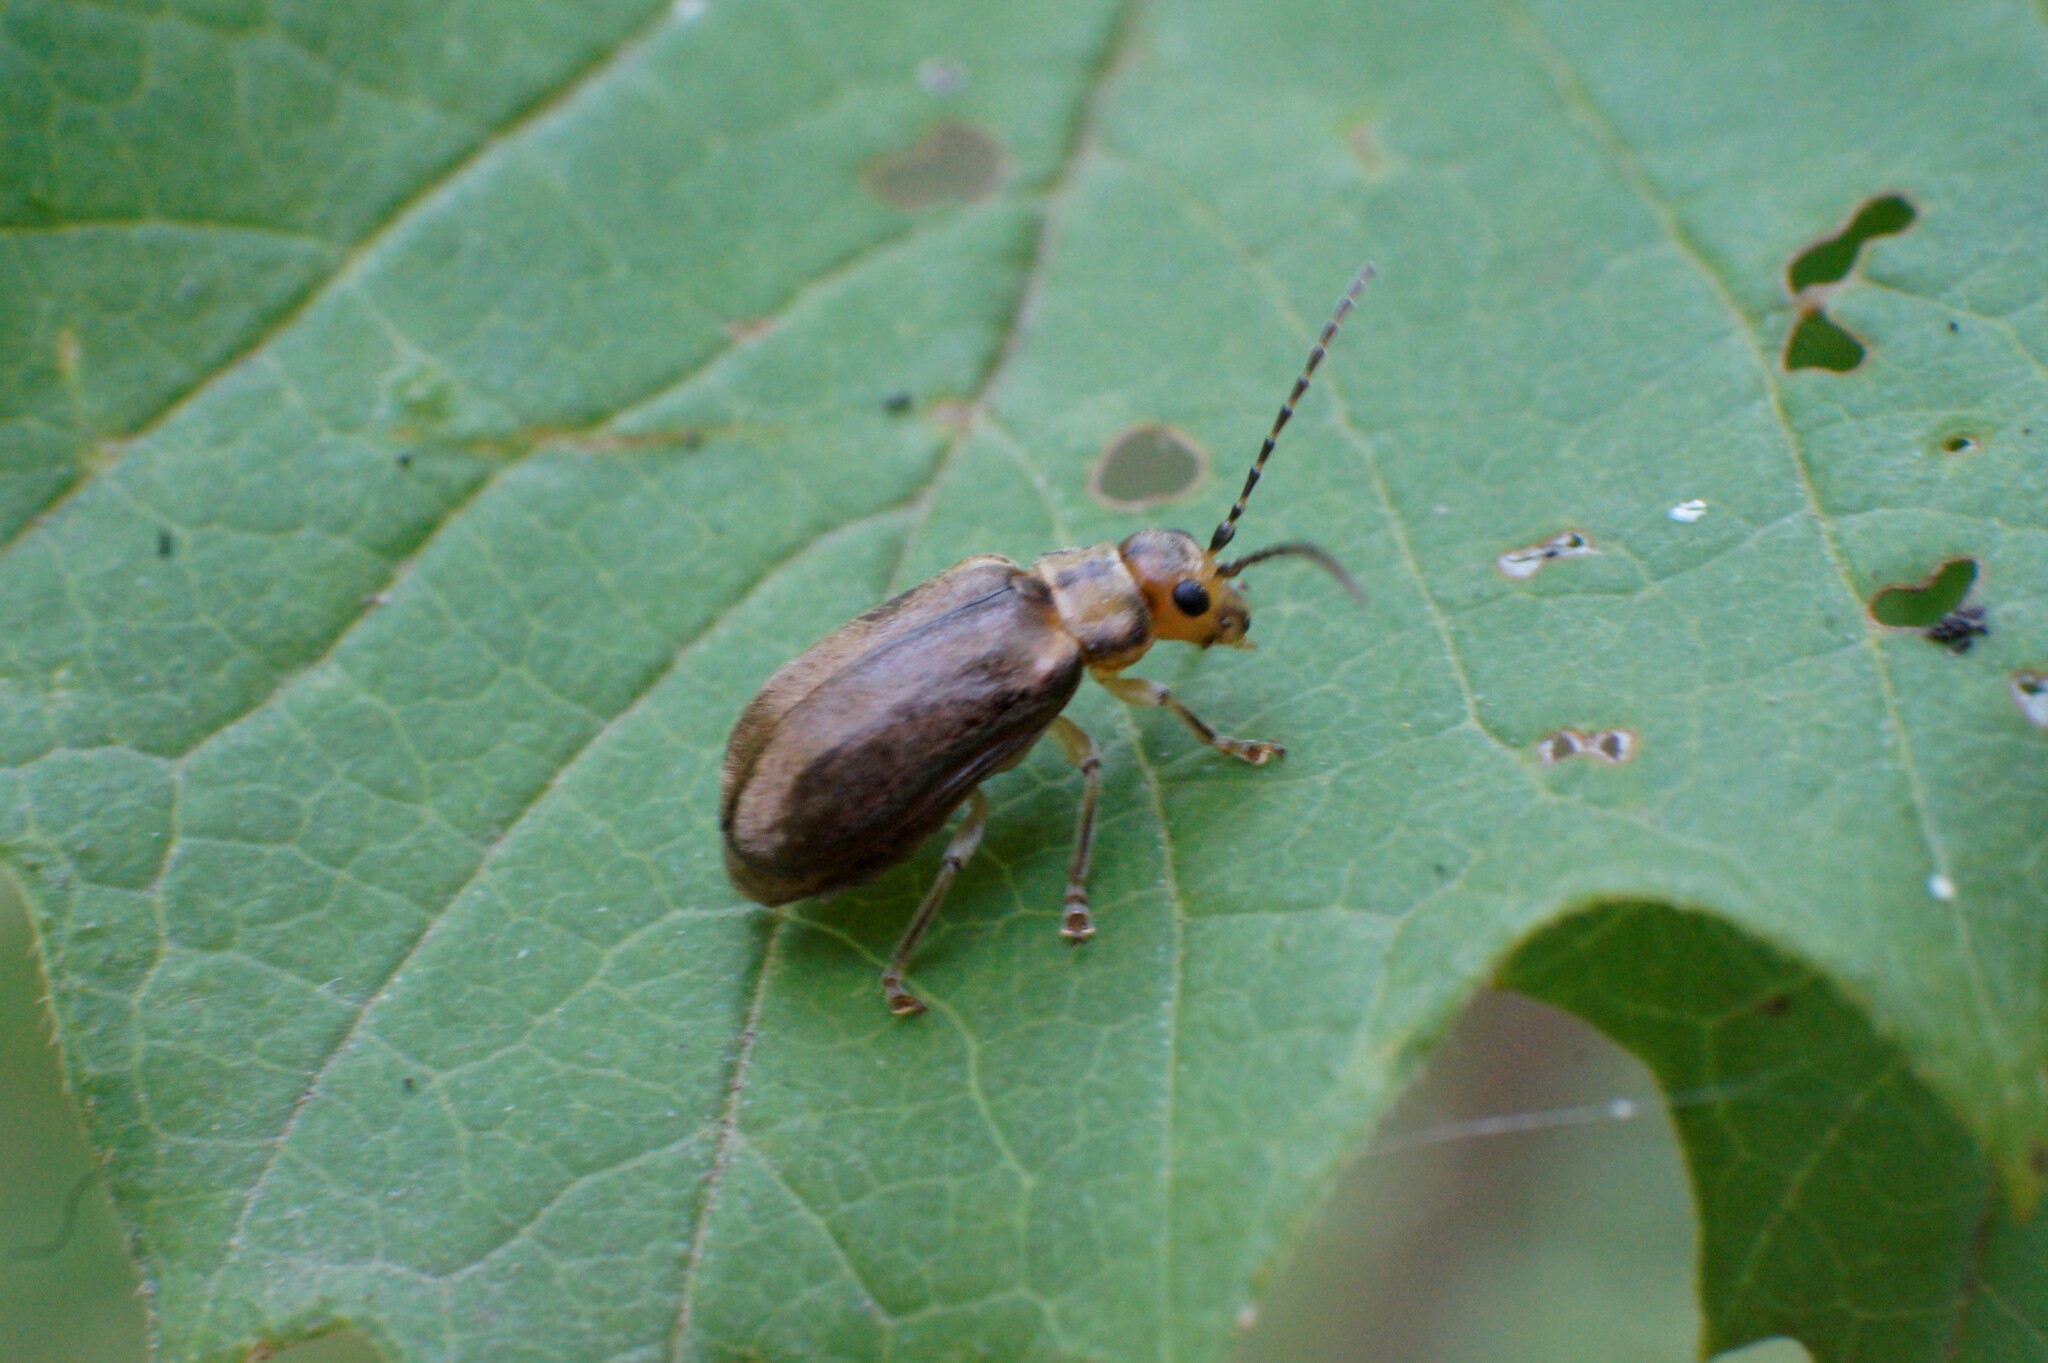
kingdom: Animalia
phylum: Arthropoda
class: Insecta
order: Coleoptera
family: Chrysomelidae
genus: Pyrrhalta
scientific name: Pyrrhalta viburni
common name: Guelder-rose leaf beetle
